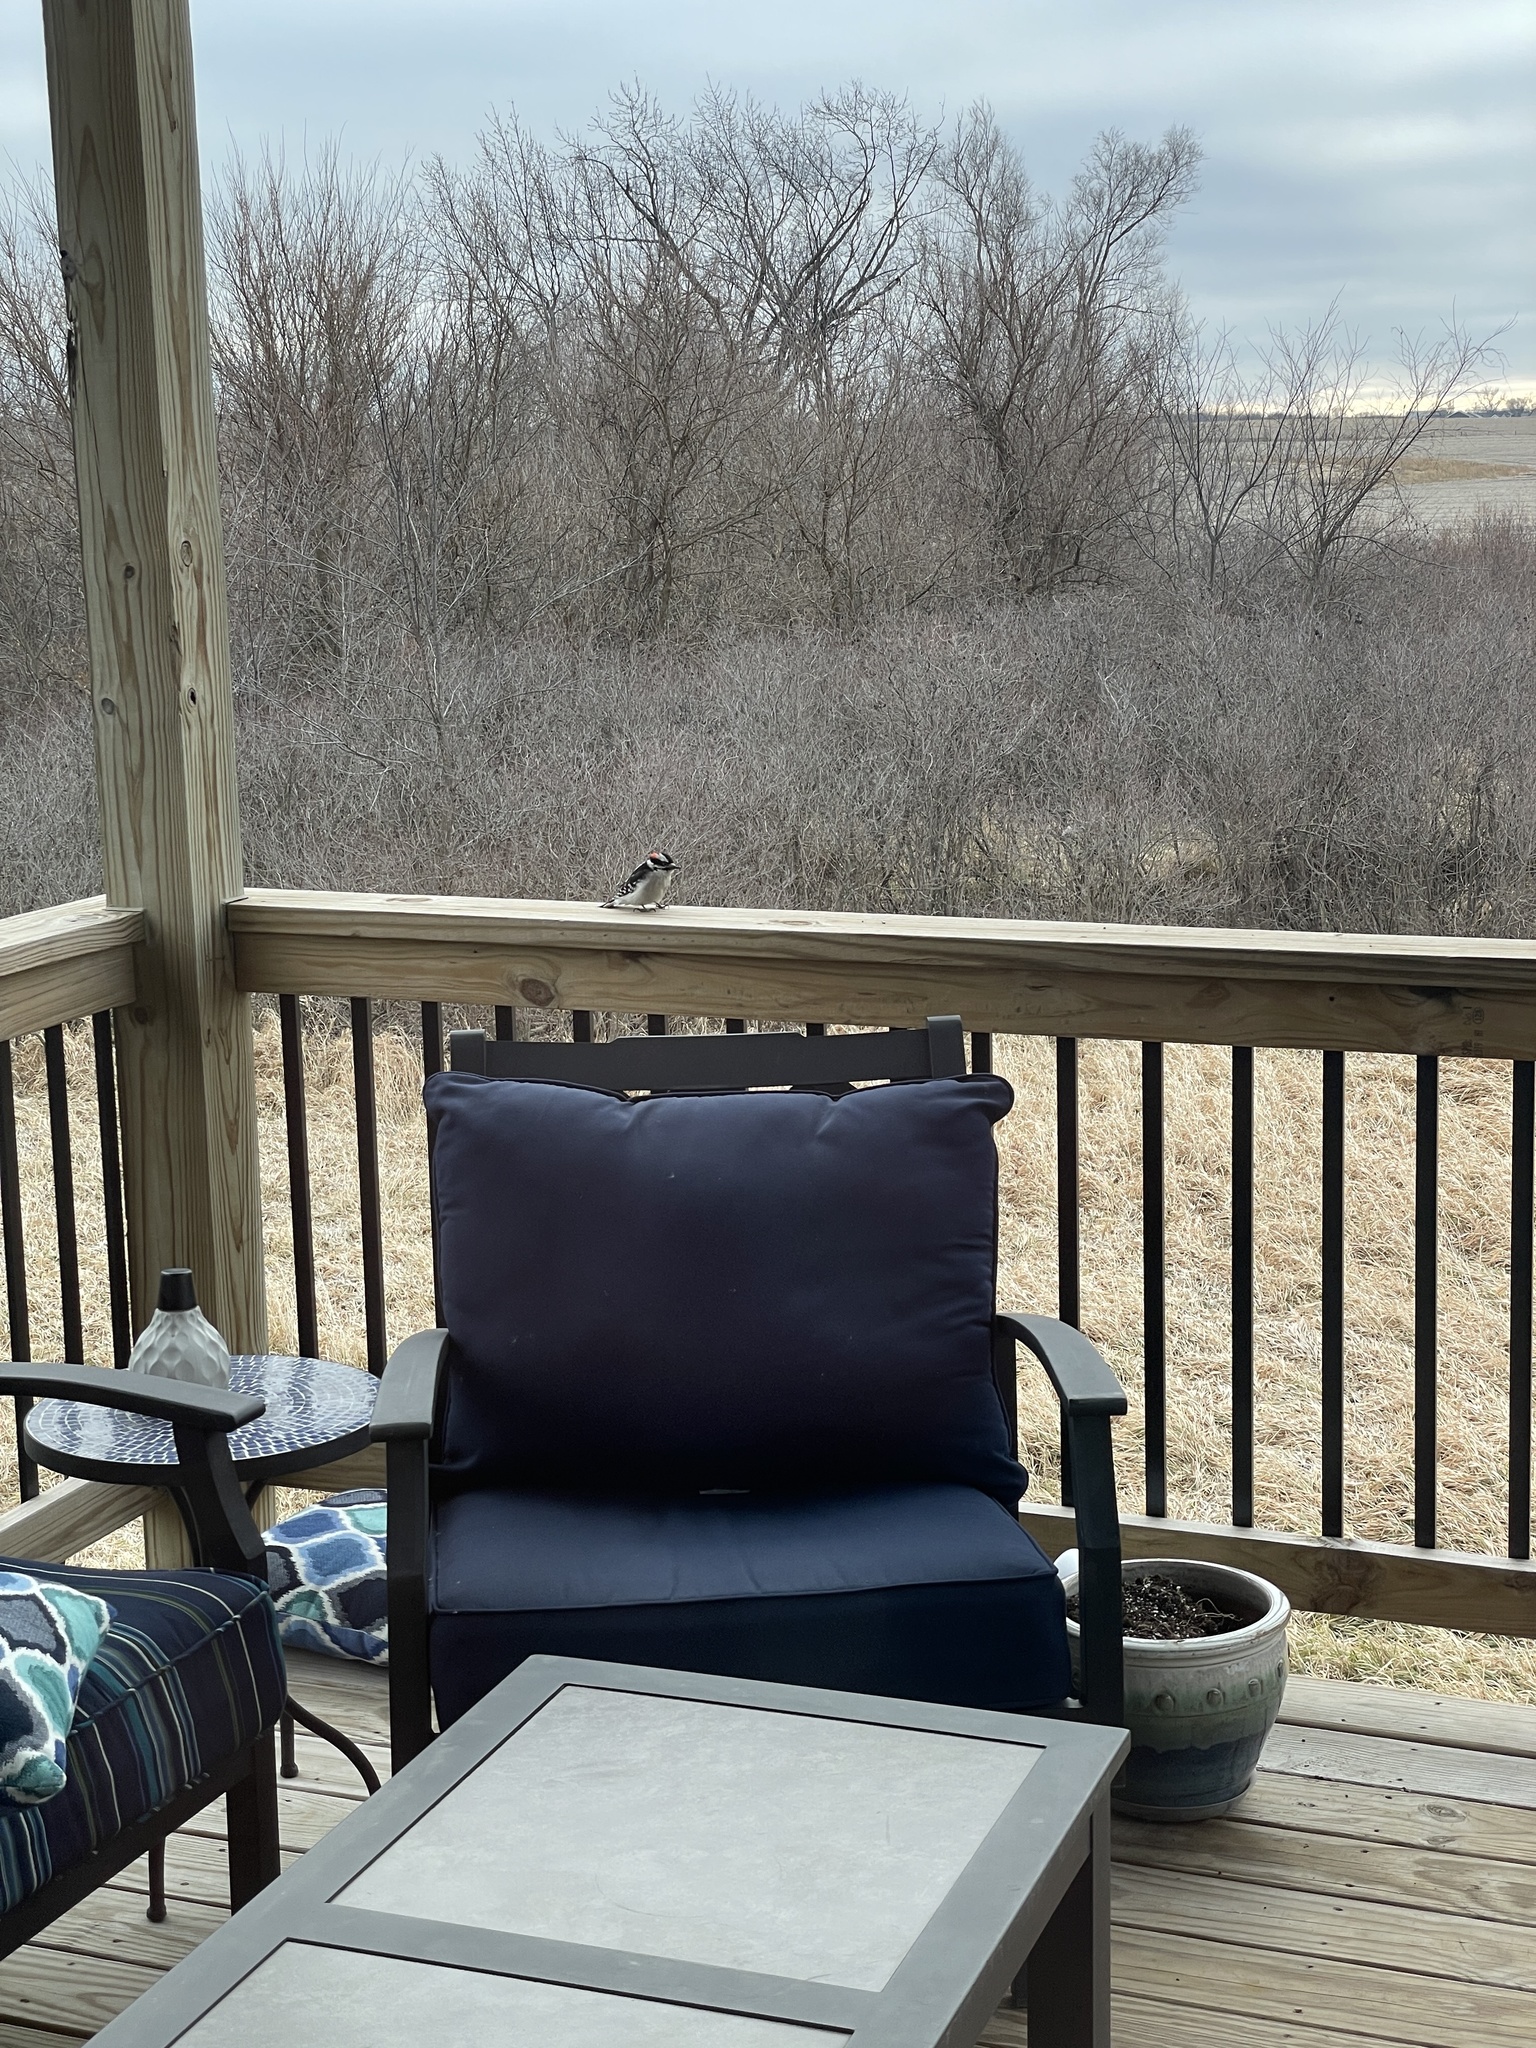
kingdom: Animalia
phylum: Chordata
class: Aves
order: Piciformes
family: Picidae
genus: Dryobates
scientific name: Dryobates pubescens
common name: Downy woodpecker
